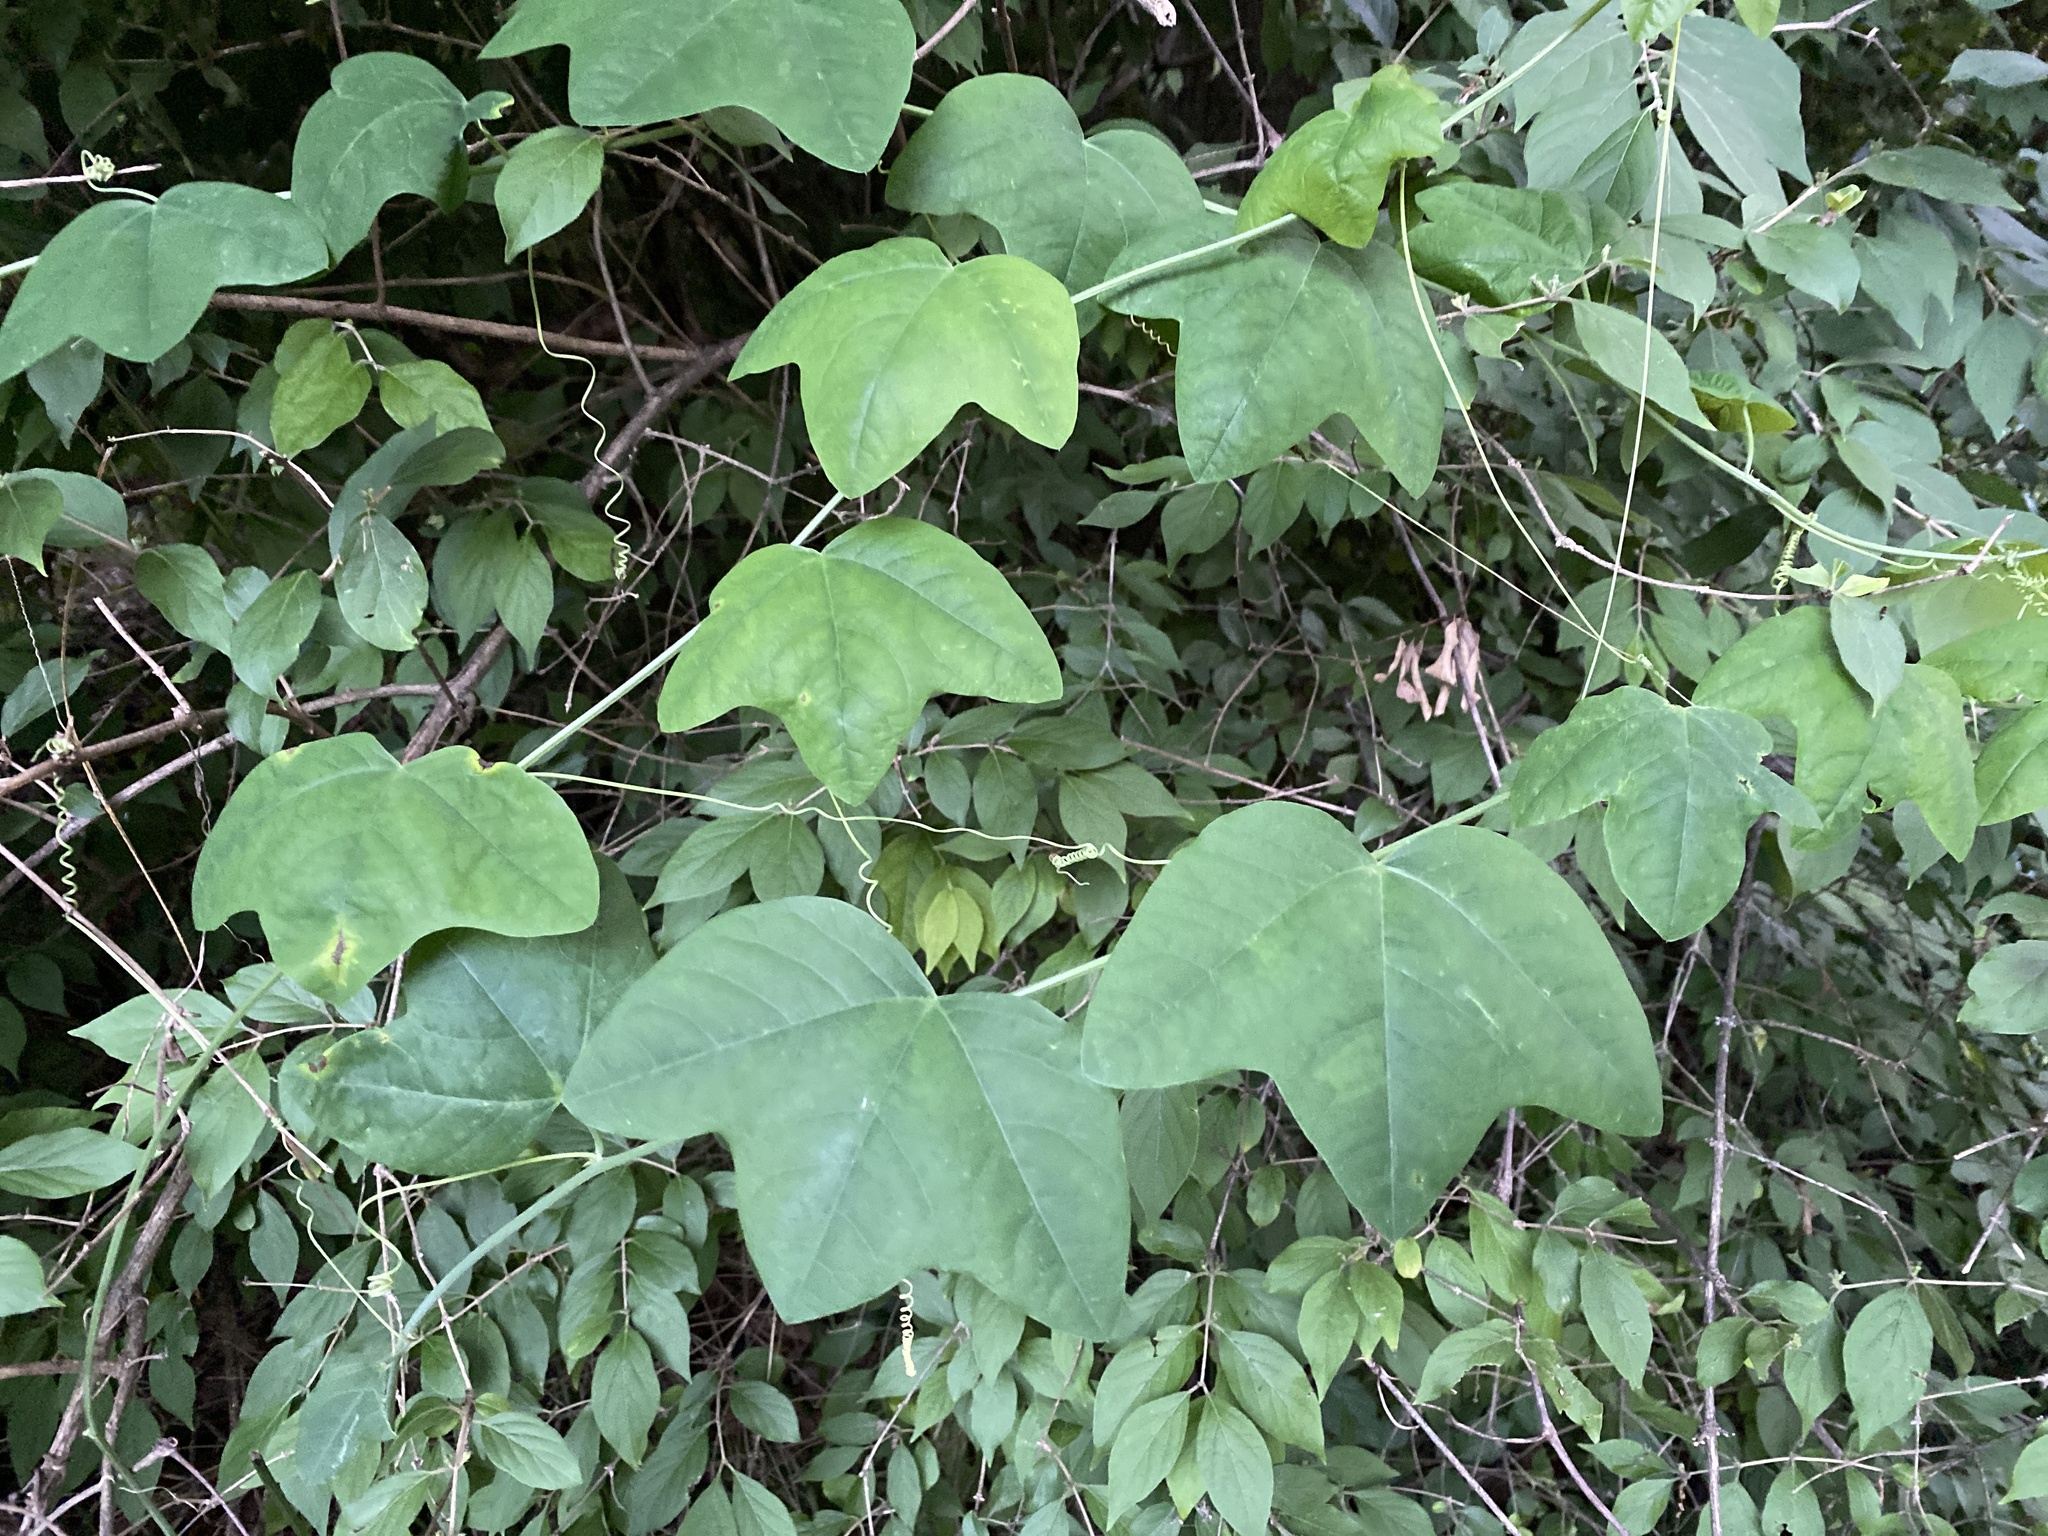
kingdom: Plantae
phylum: Tracheophyta
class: Magnoliopsida
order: Malpighiales
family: Passifloraceae
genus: Passiflora
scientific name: Passiflora lutea
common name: Yellow passionflower
